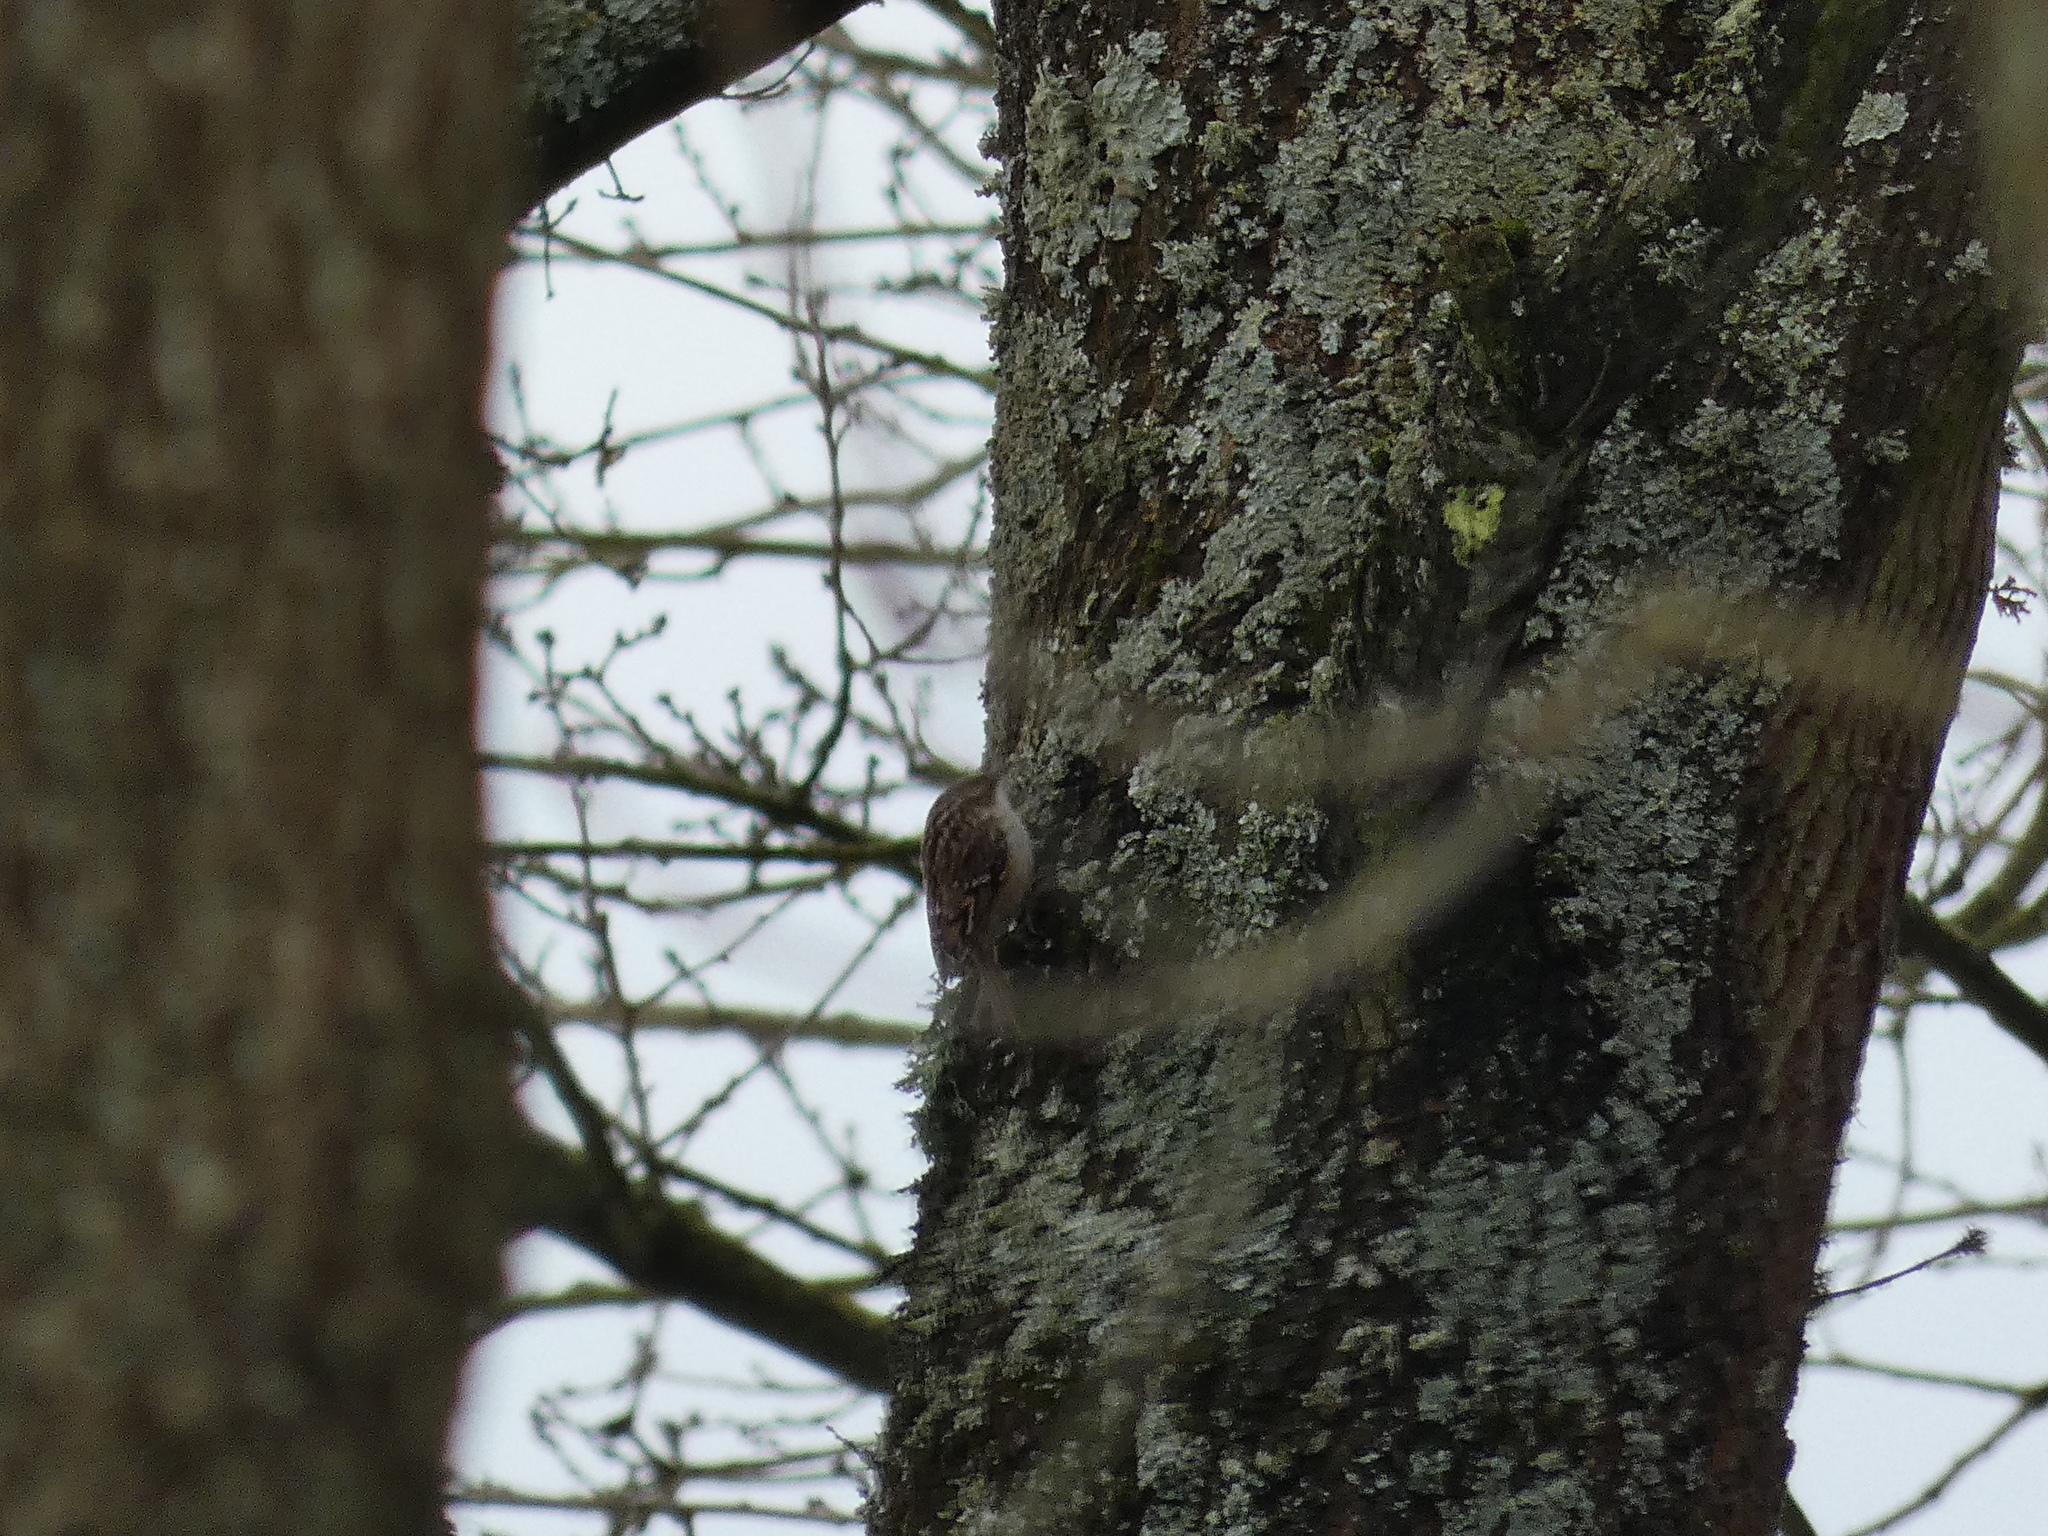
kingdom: Animalia
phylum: Chordata
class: Aves
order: Passeriformes
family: Certhiidae
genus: Certhia
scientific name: Certhia brachydactyla
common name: Short-toed treecreeper
